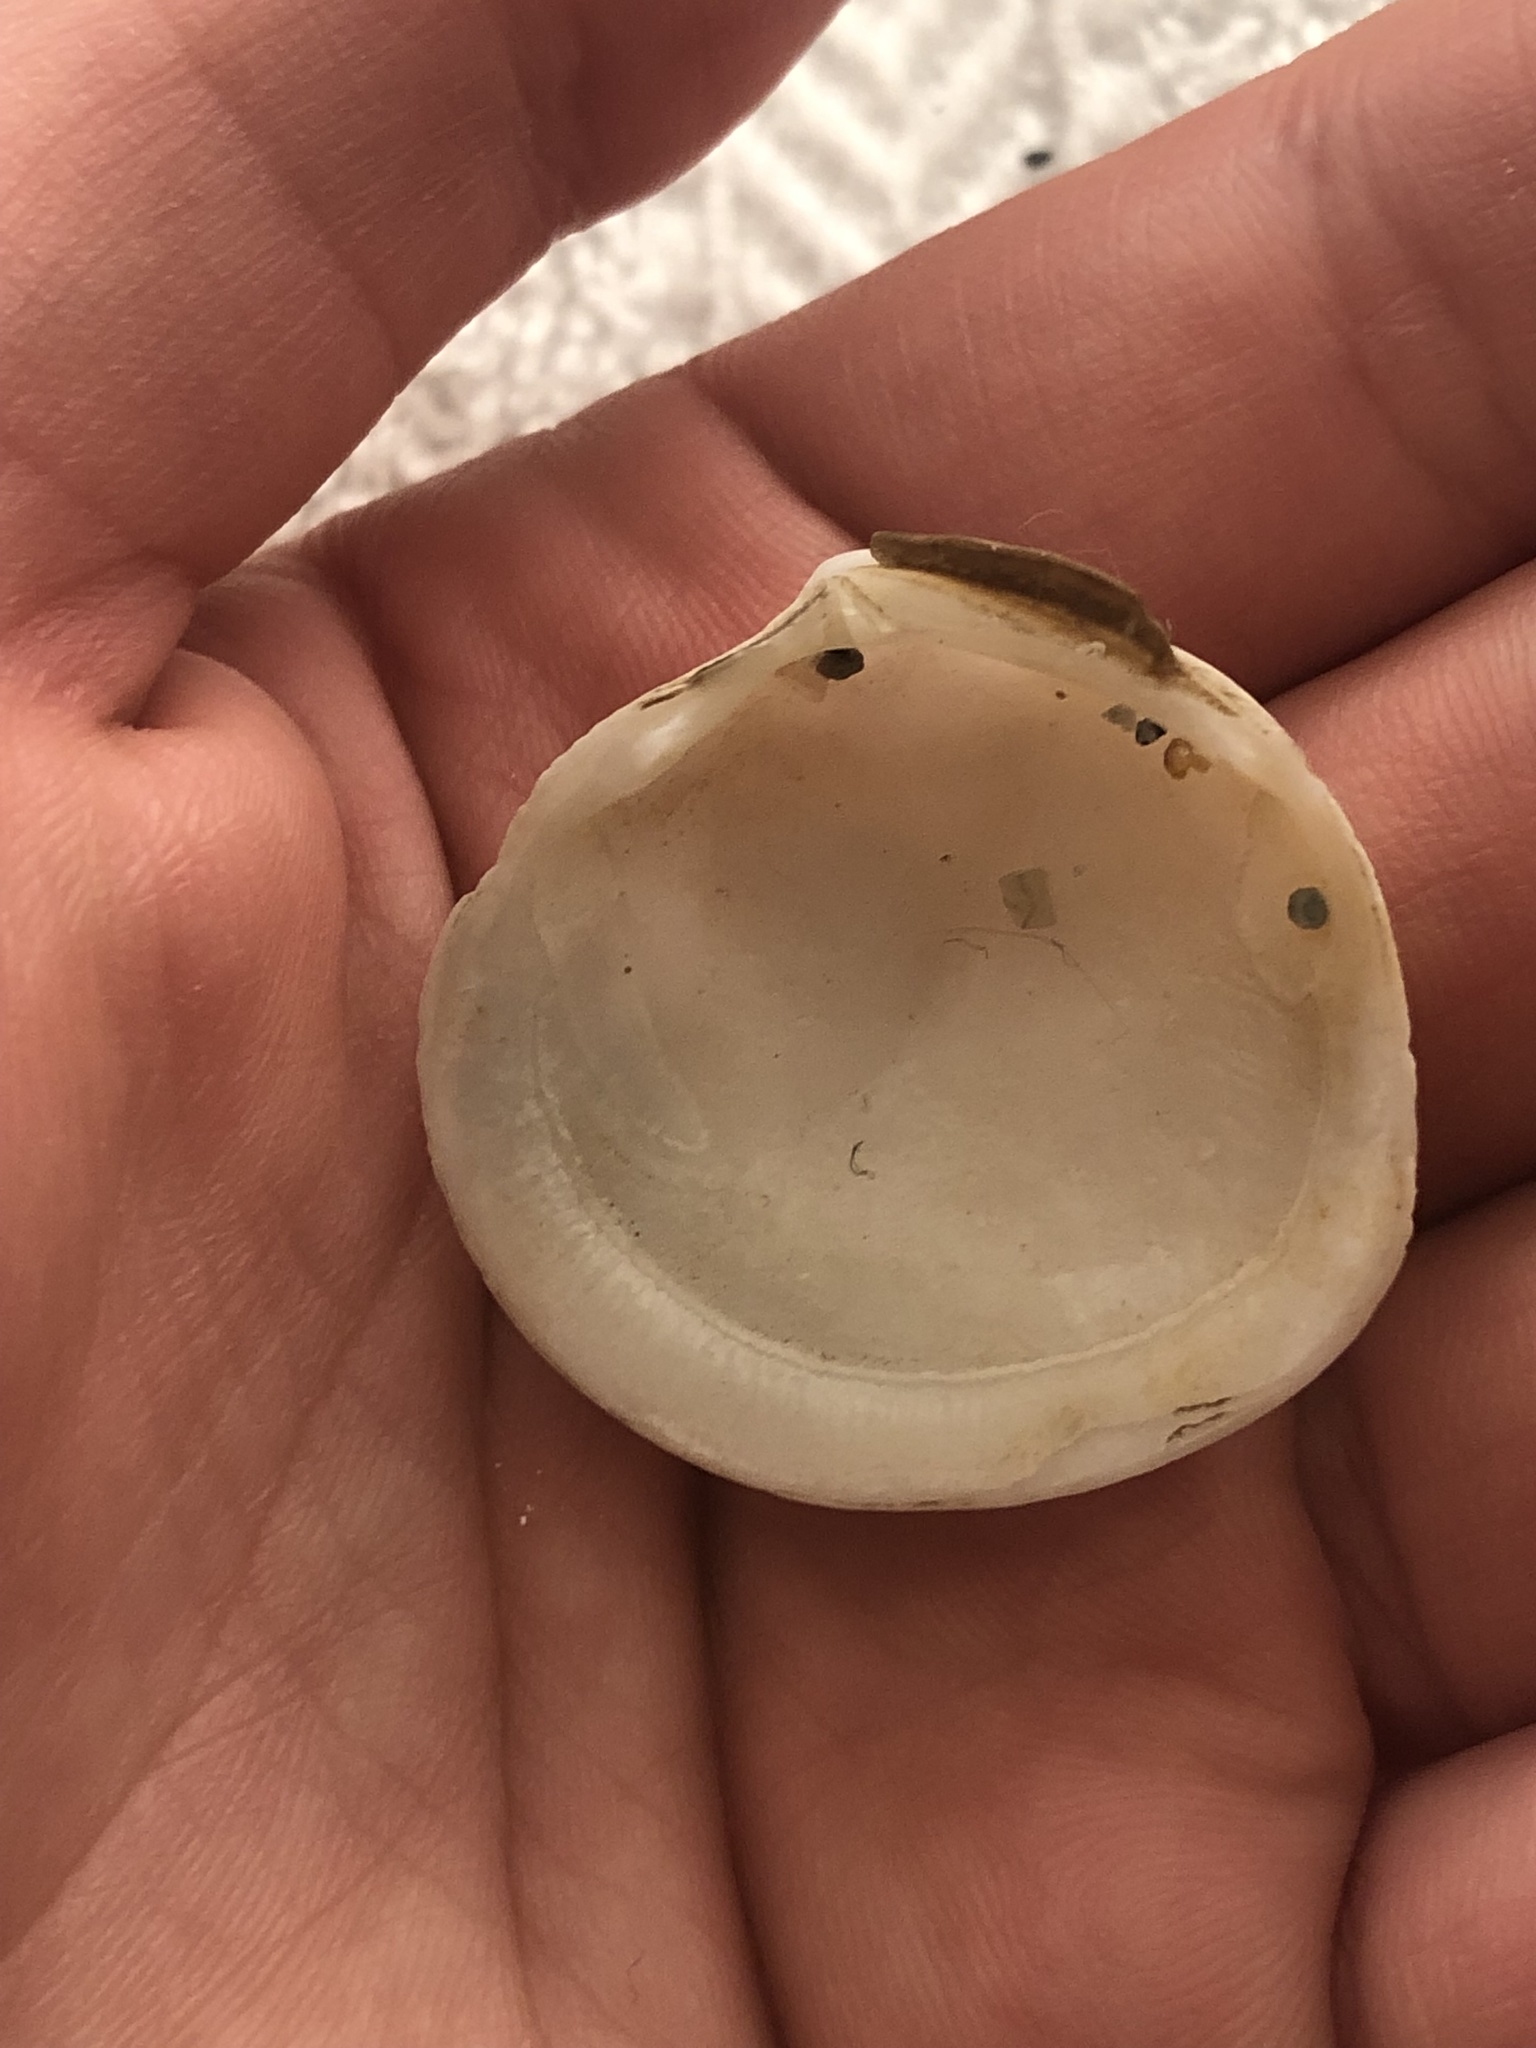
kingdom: Animalia
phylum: Mollusca
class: Bivalvia
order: Lucinida
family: Lucinidae
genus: Epilucina
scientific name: Epilucina californica
